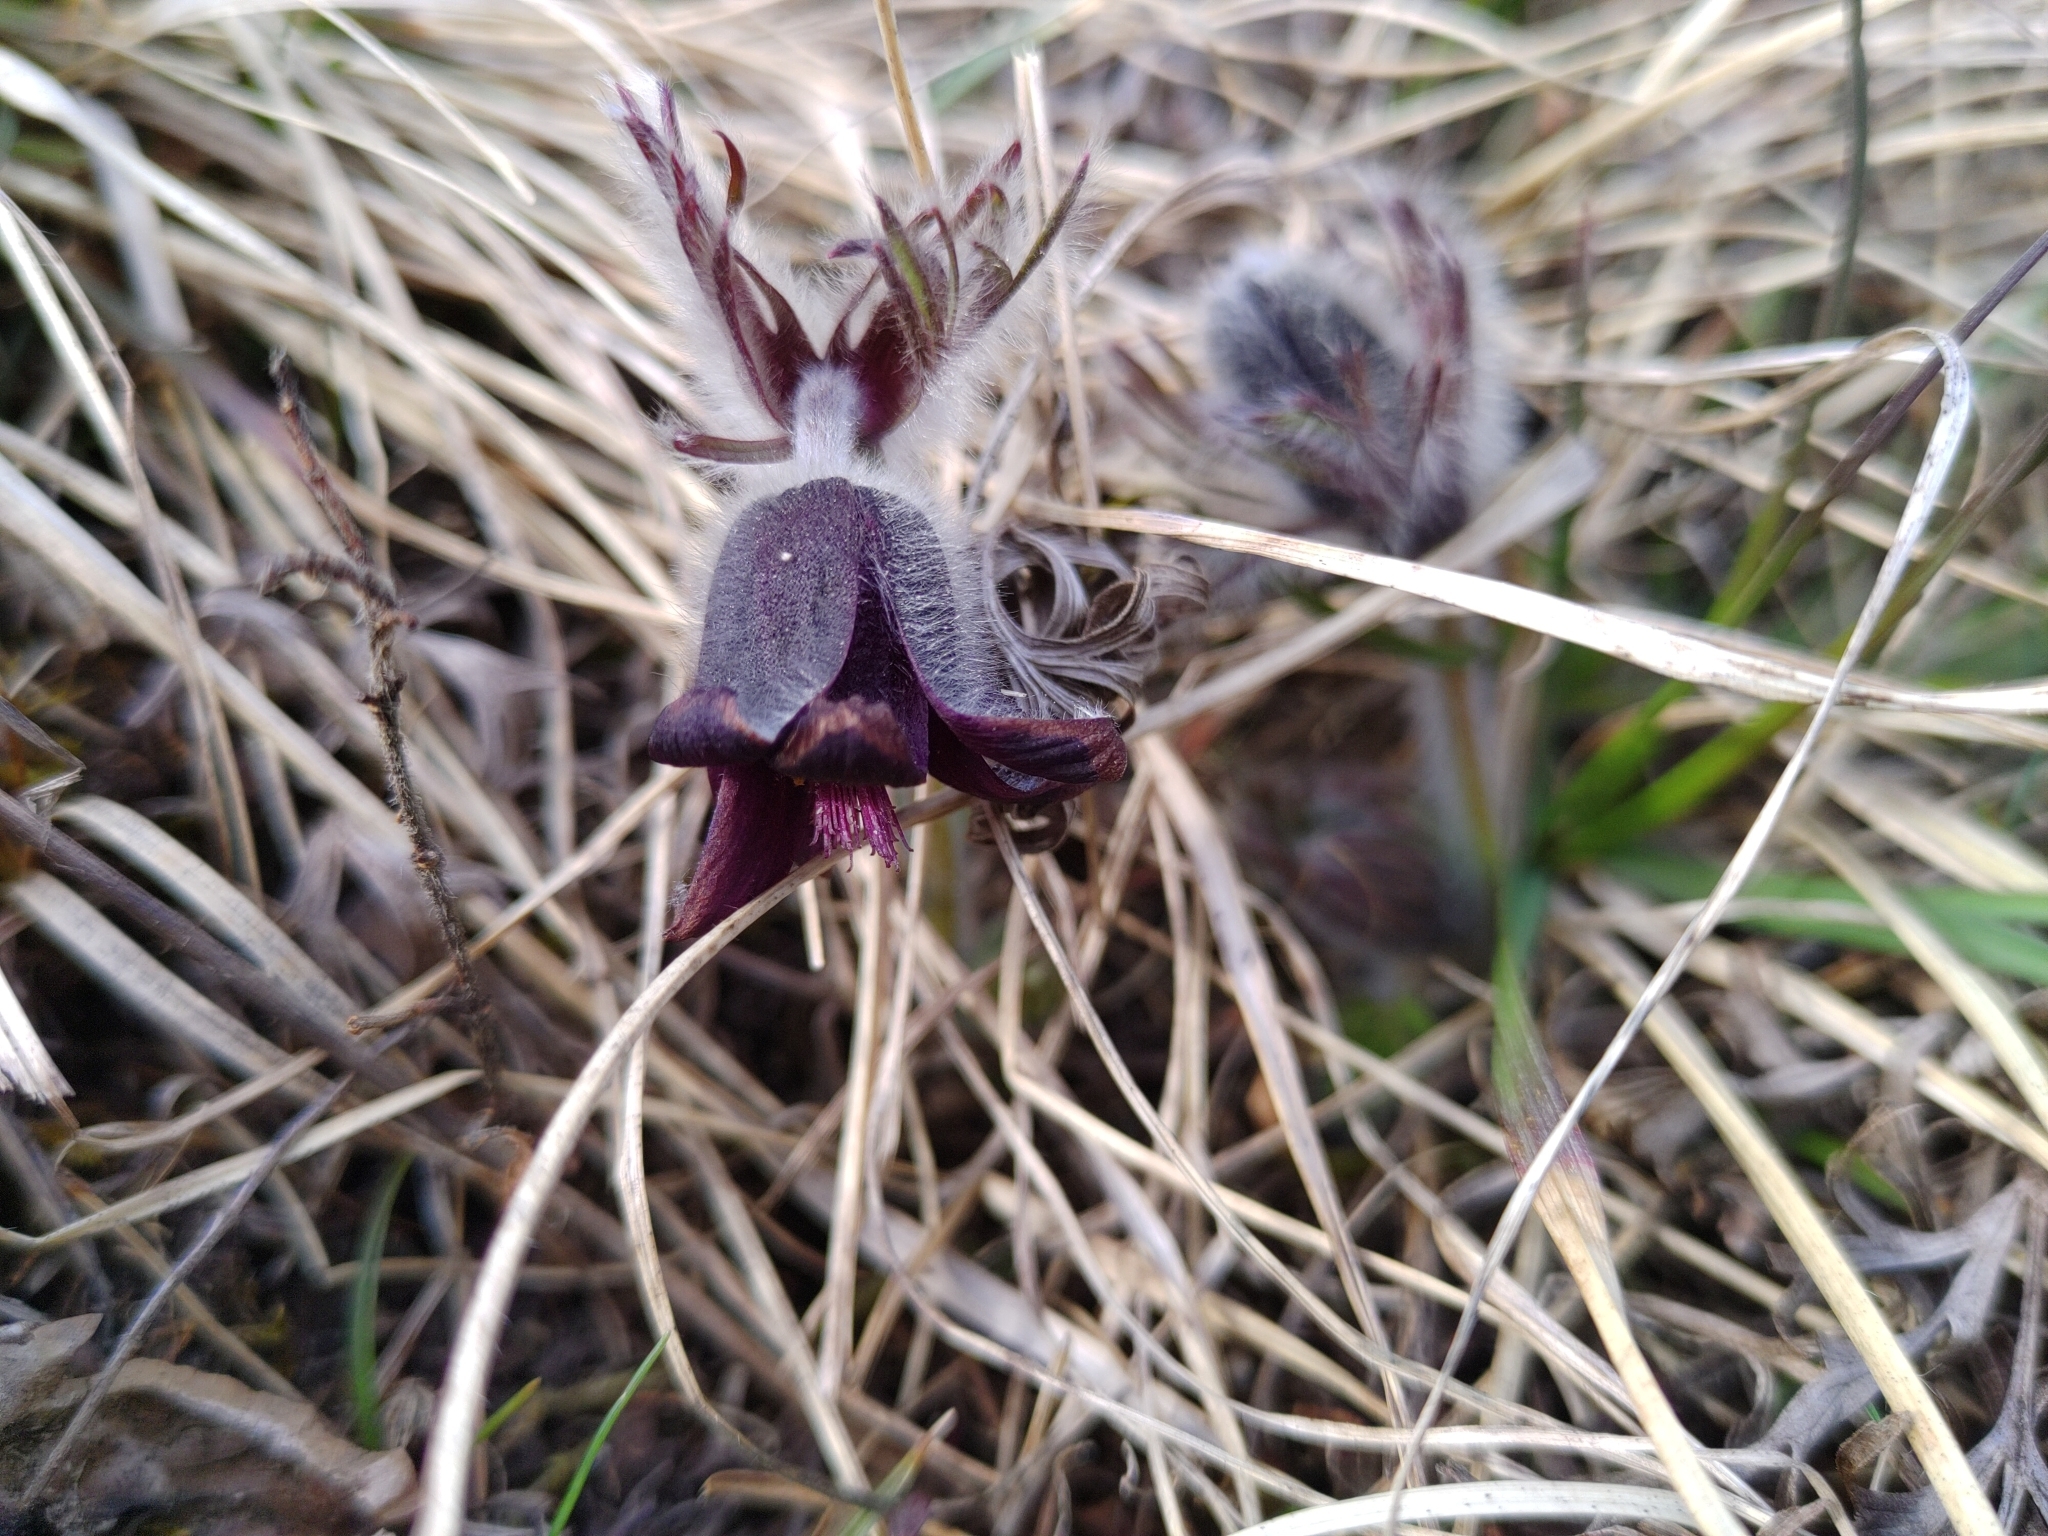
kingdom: Plantae
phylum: Tracheophyta
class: Magnoliopsida
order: Ranunculales
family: Ranunculaceae
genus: Pulsatilla
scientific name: Pulsatilla pratensis
